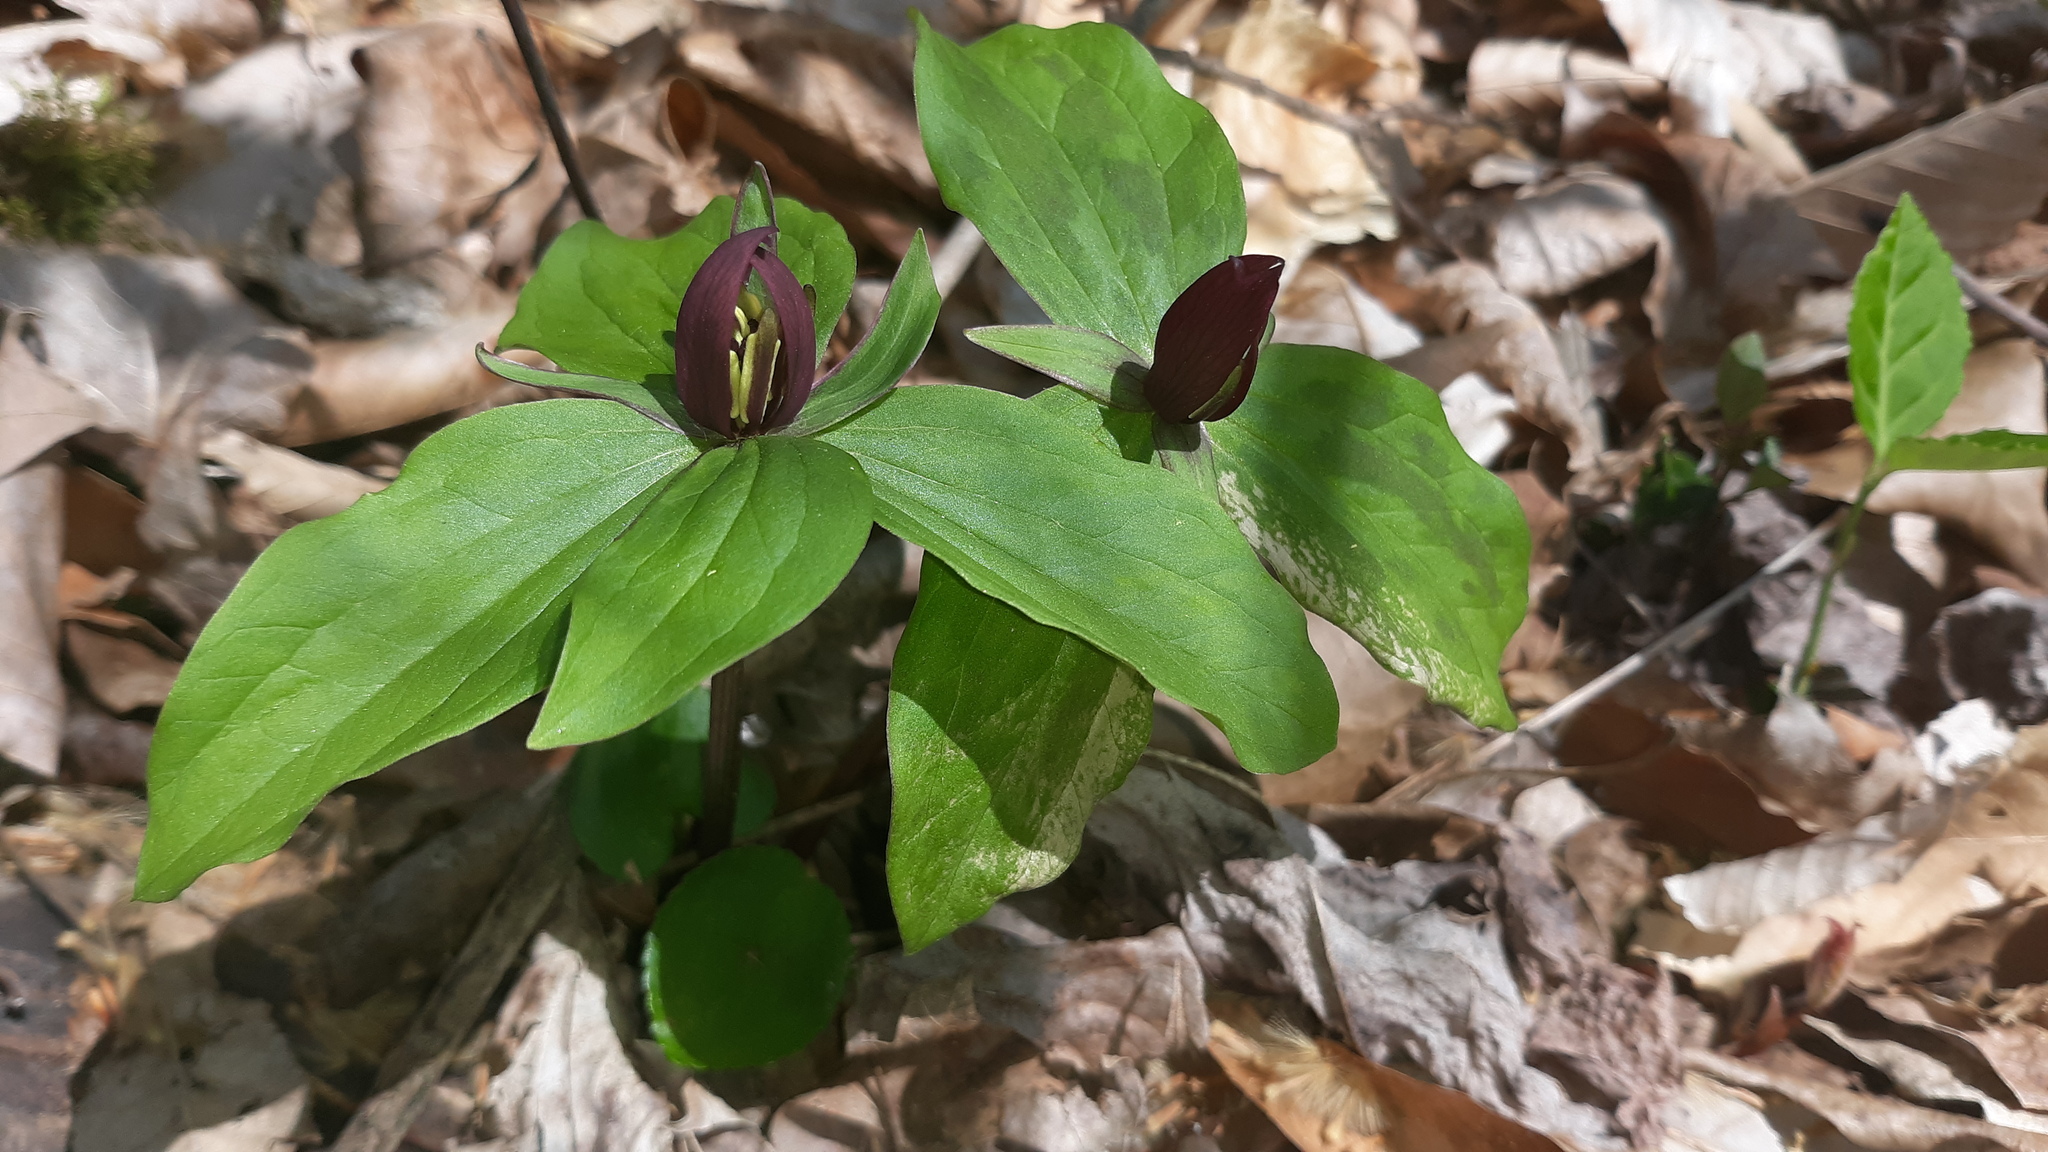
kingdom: Plantae
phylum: Tracheophyta
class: Liliopsida
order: Liliales
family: Melanthiaceae
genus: Trillium
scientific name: Trillium sessile
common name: Sessile trillium
